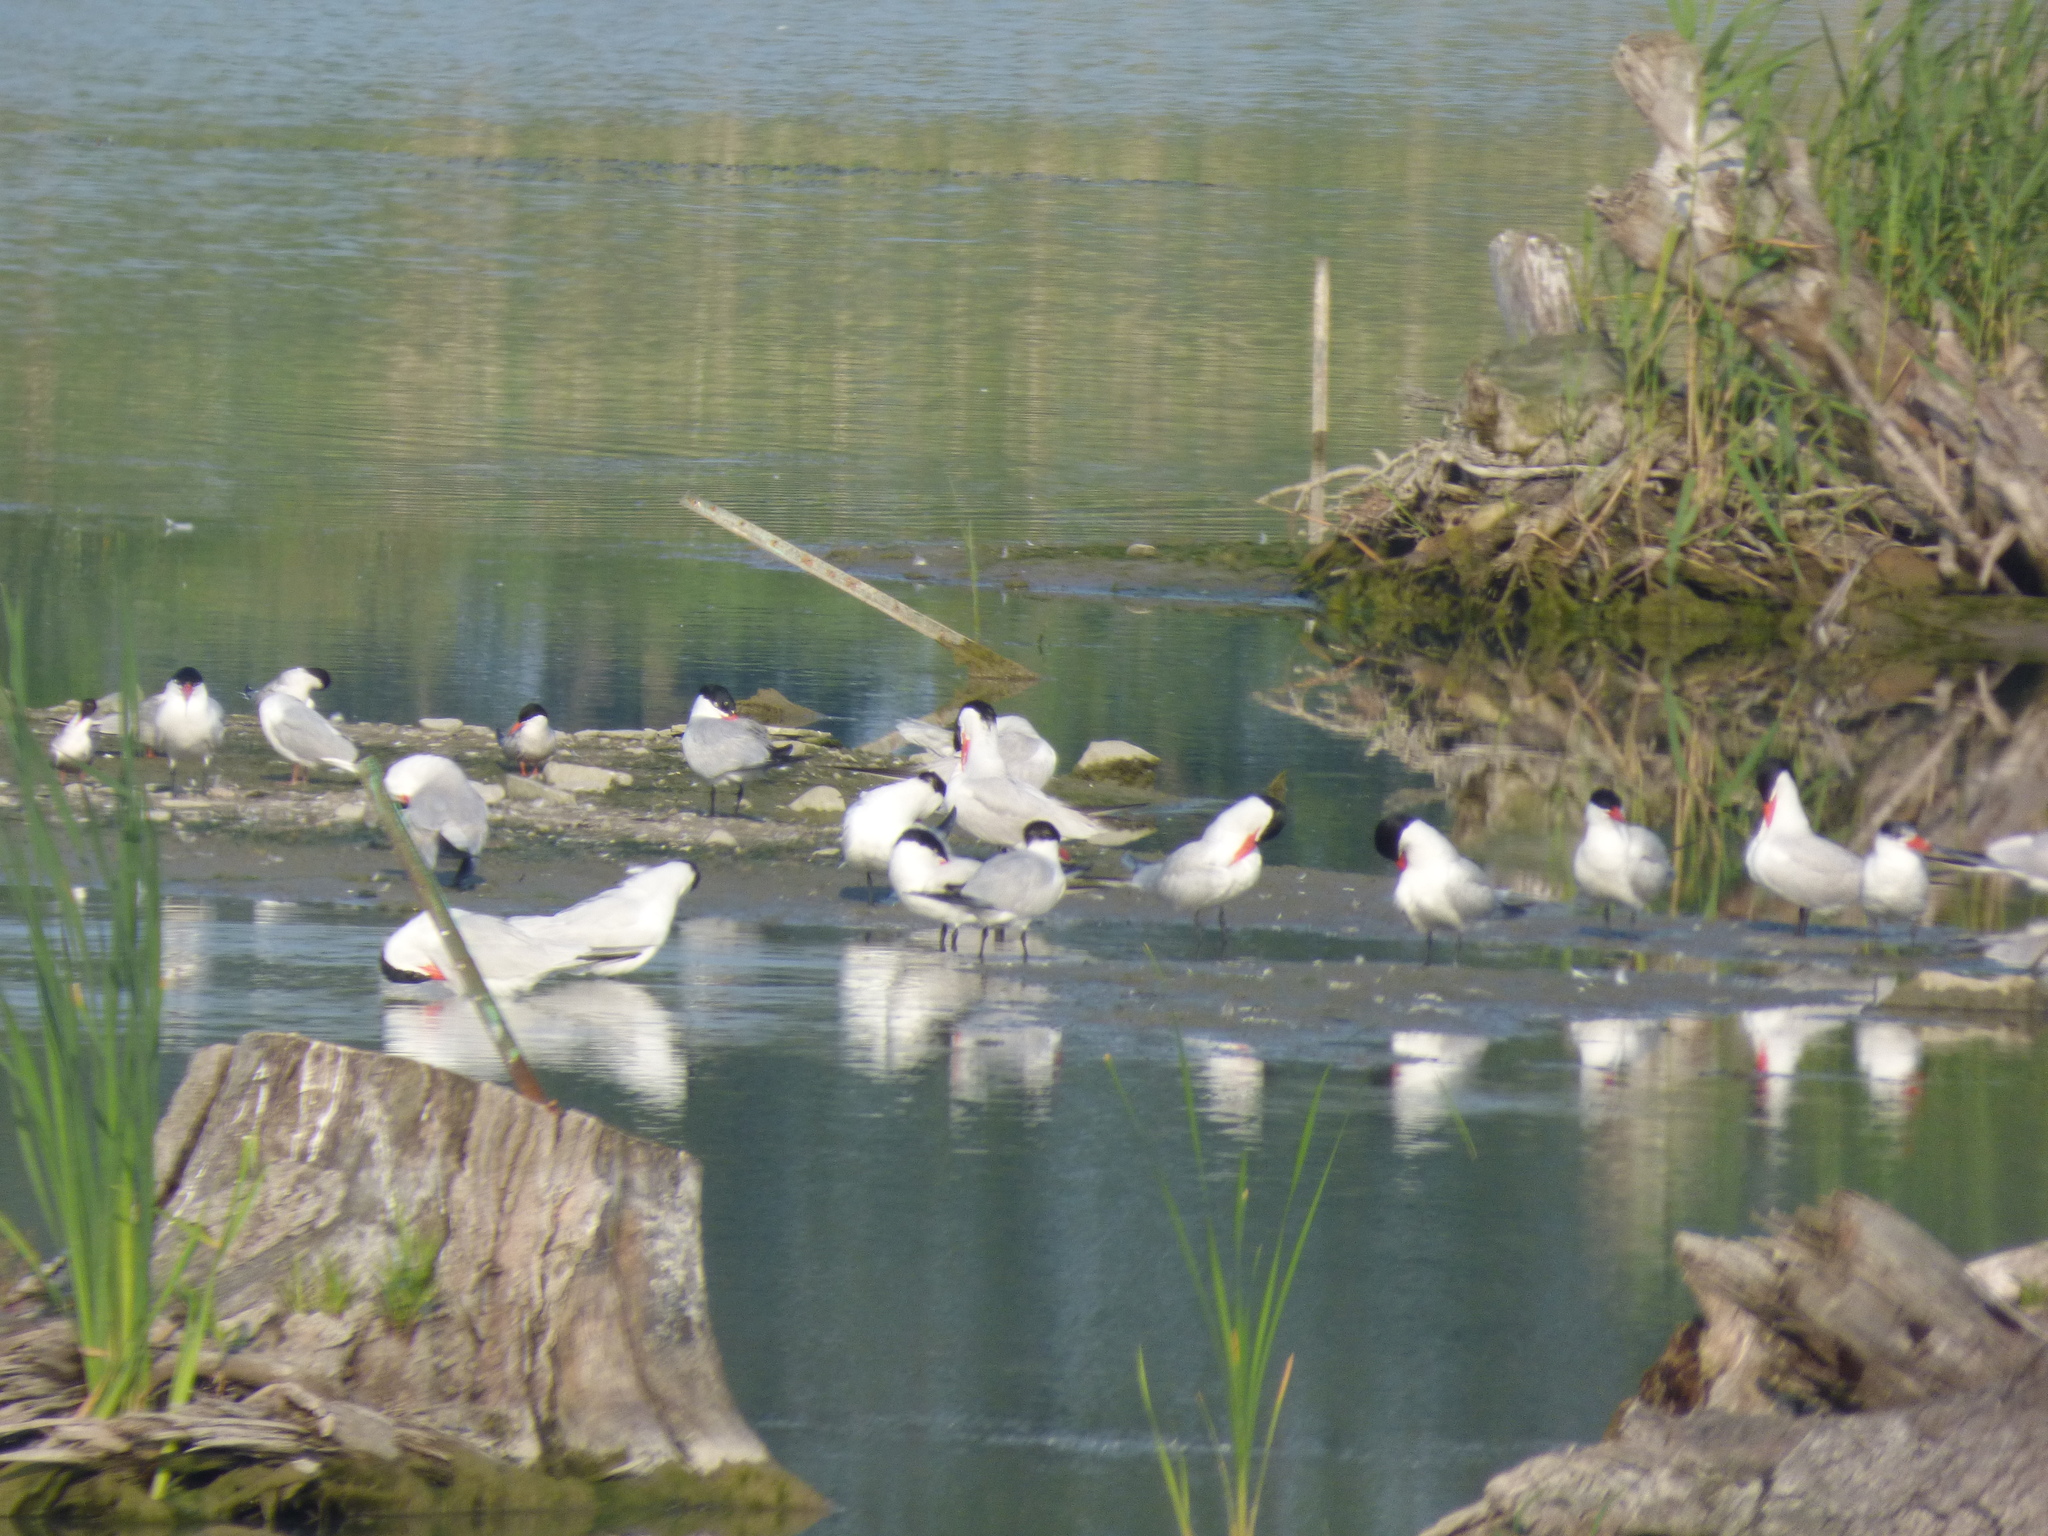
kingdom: Animalia
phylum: Chordata
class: Aves
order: Charadriiformes
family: Laridae
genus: Hydroprogne
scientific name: Hydroprogne caspia
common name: Caspian tern
